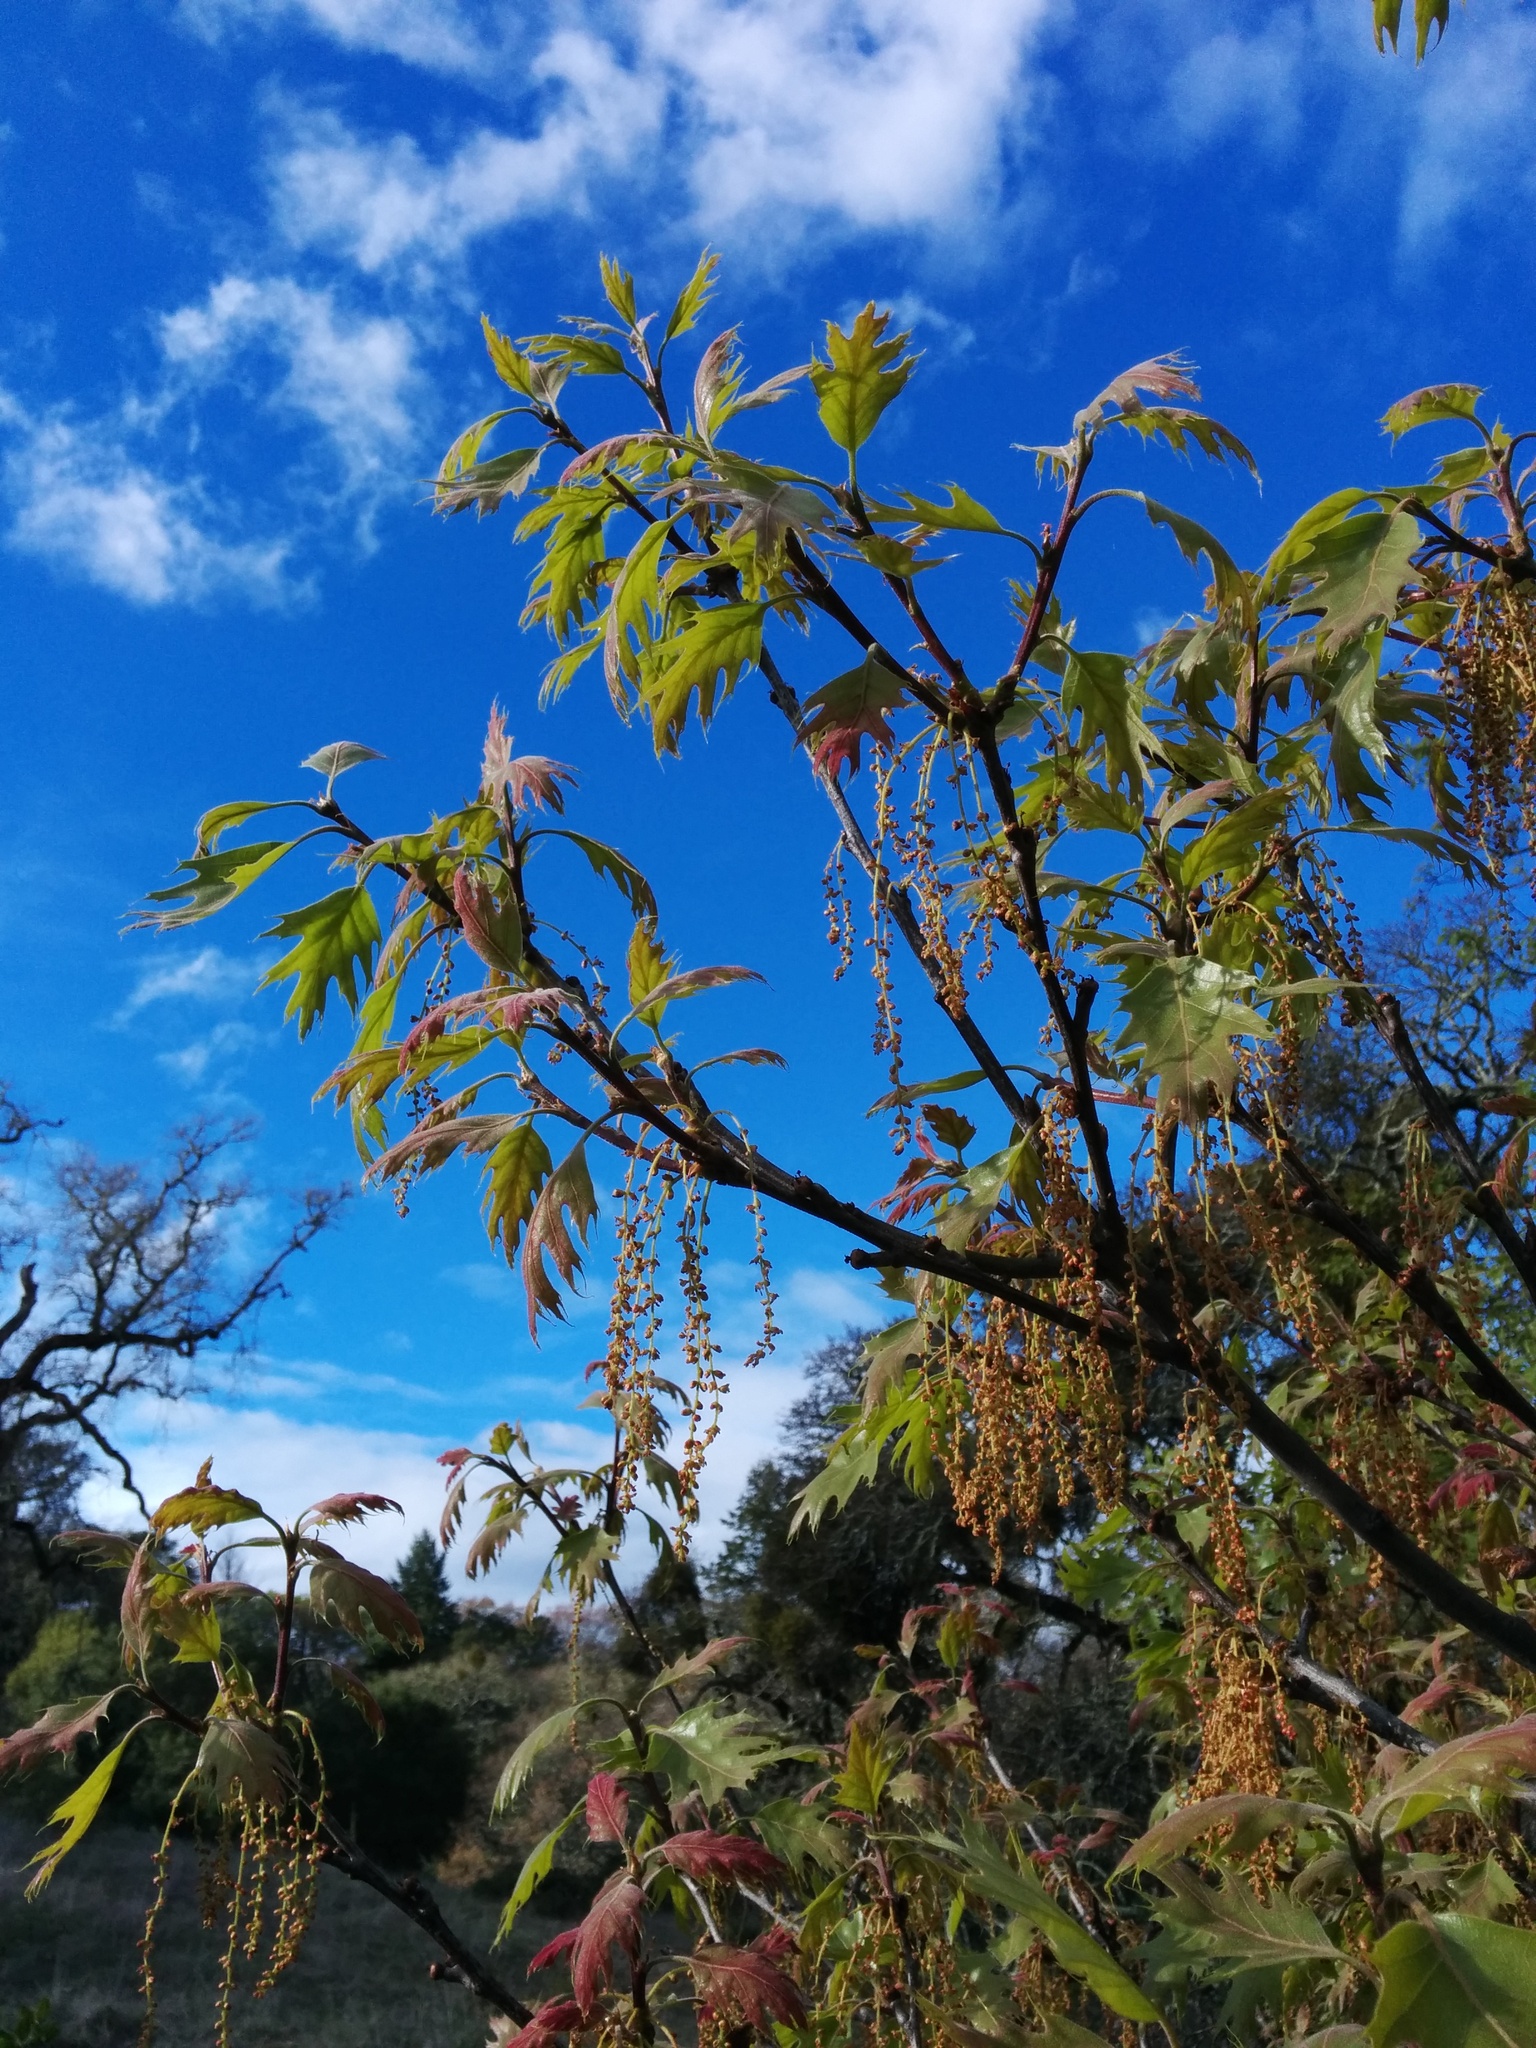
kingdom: Plantae
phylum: Tracheophyta
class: Magnoliopsida
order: Fagales
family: Fagaceae
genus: Quercus
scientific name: Quercus kelloggii
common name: California black oak
